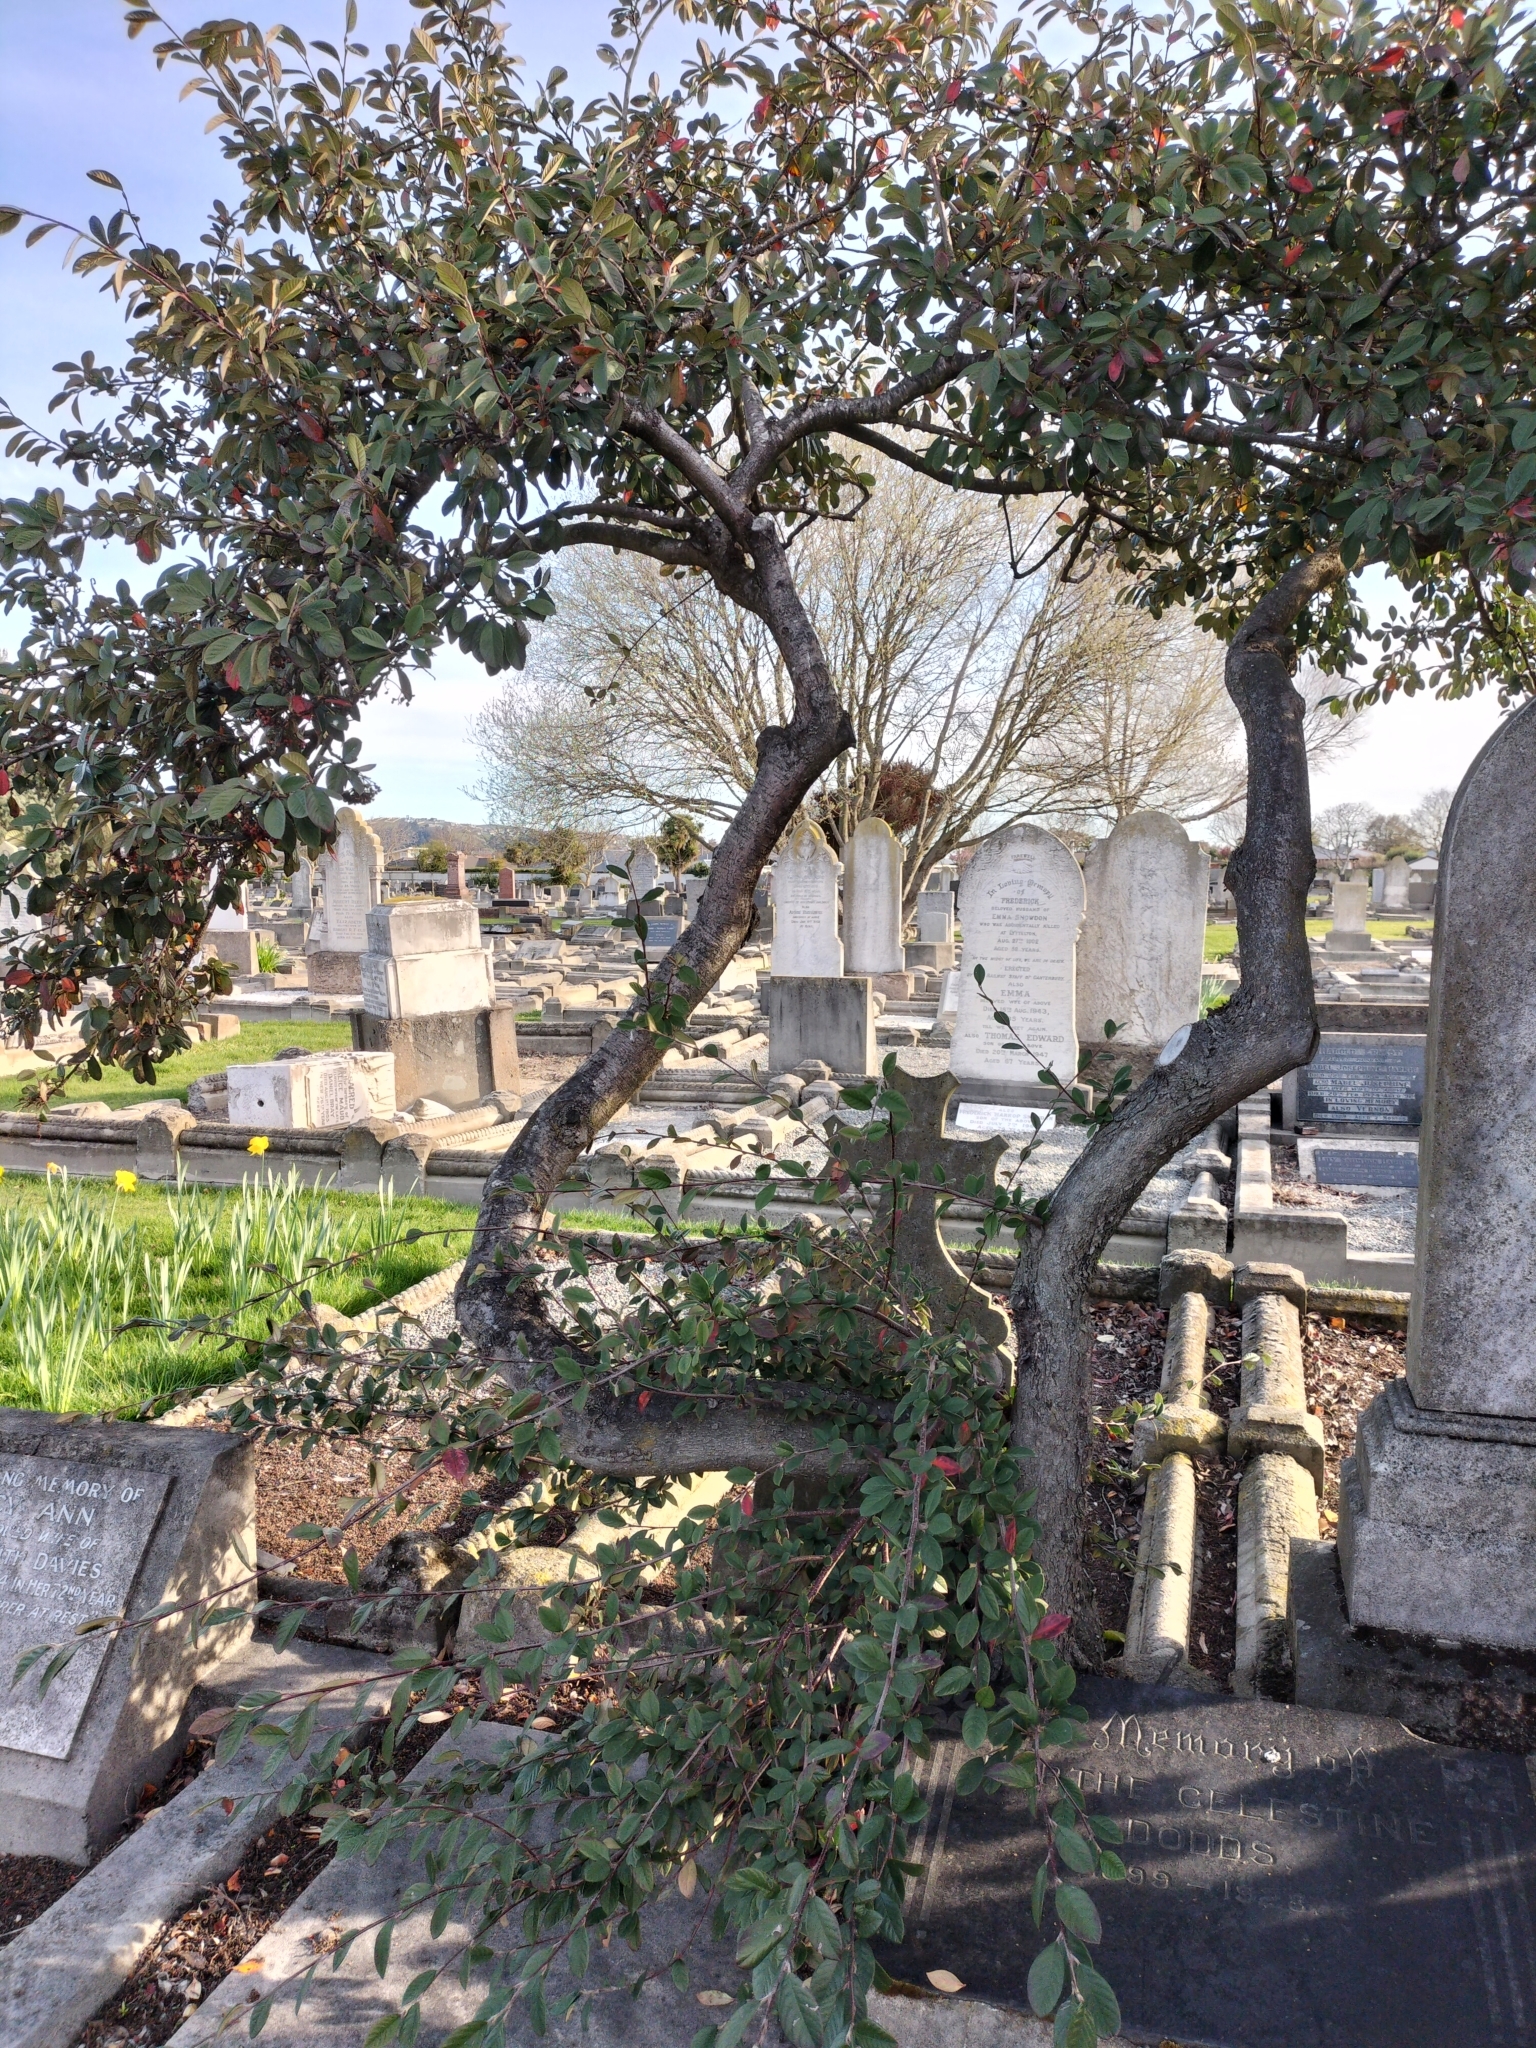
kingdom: Plantae
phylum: Tracheophyta
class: Magnoliopsida
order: Rosales
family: Rosaceae
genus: Cotoneaster
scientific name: Cotoneaster coriaceus
